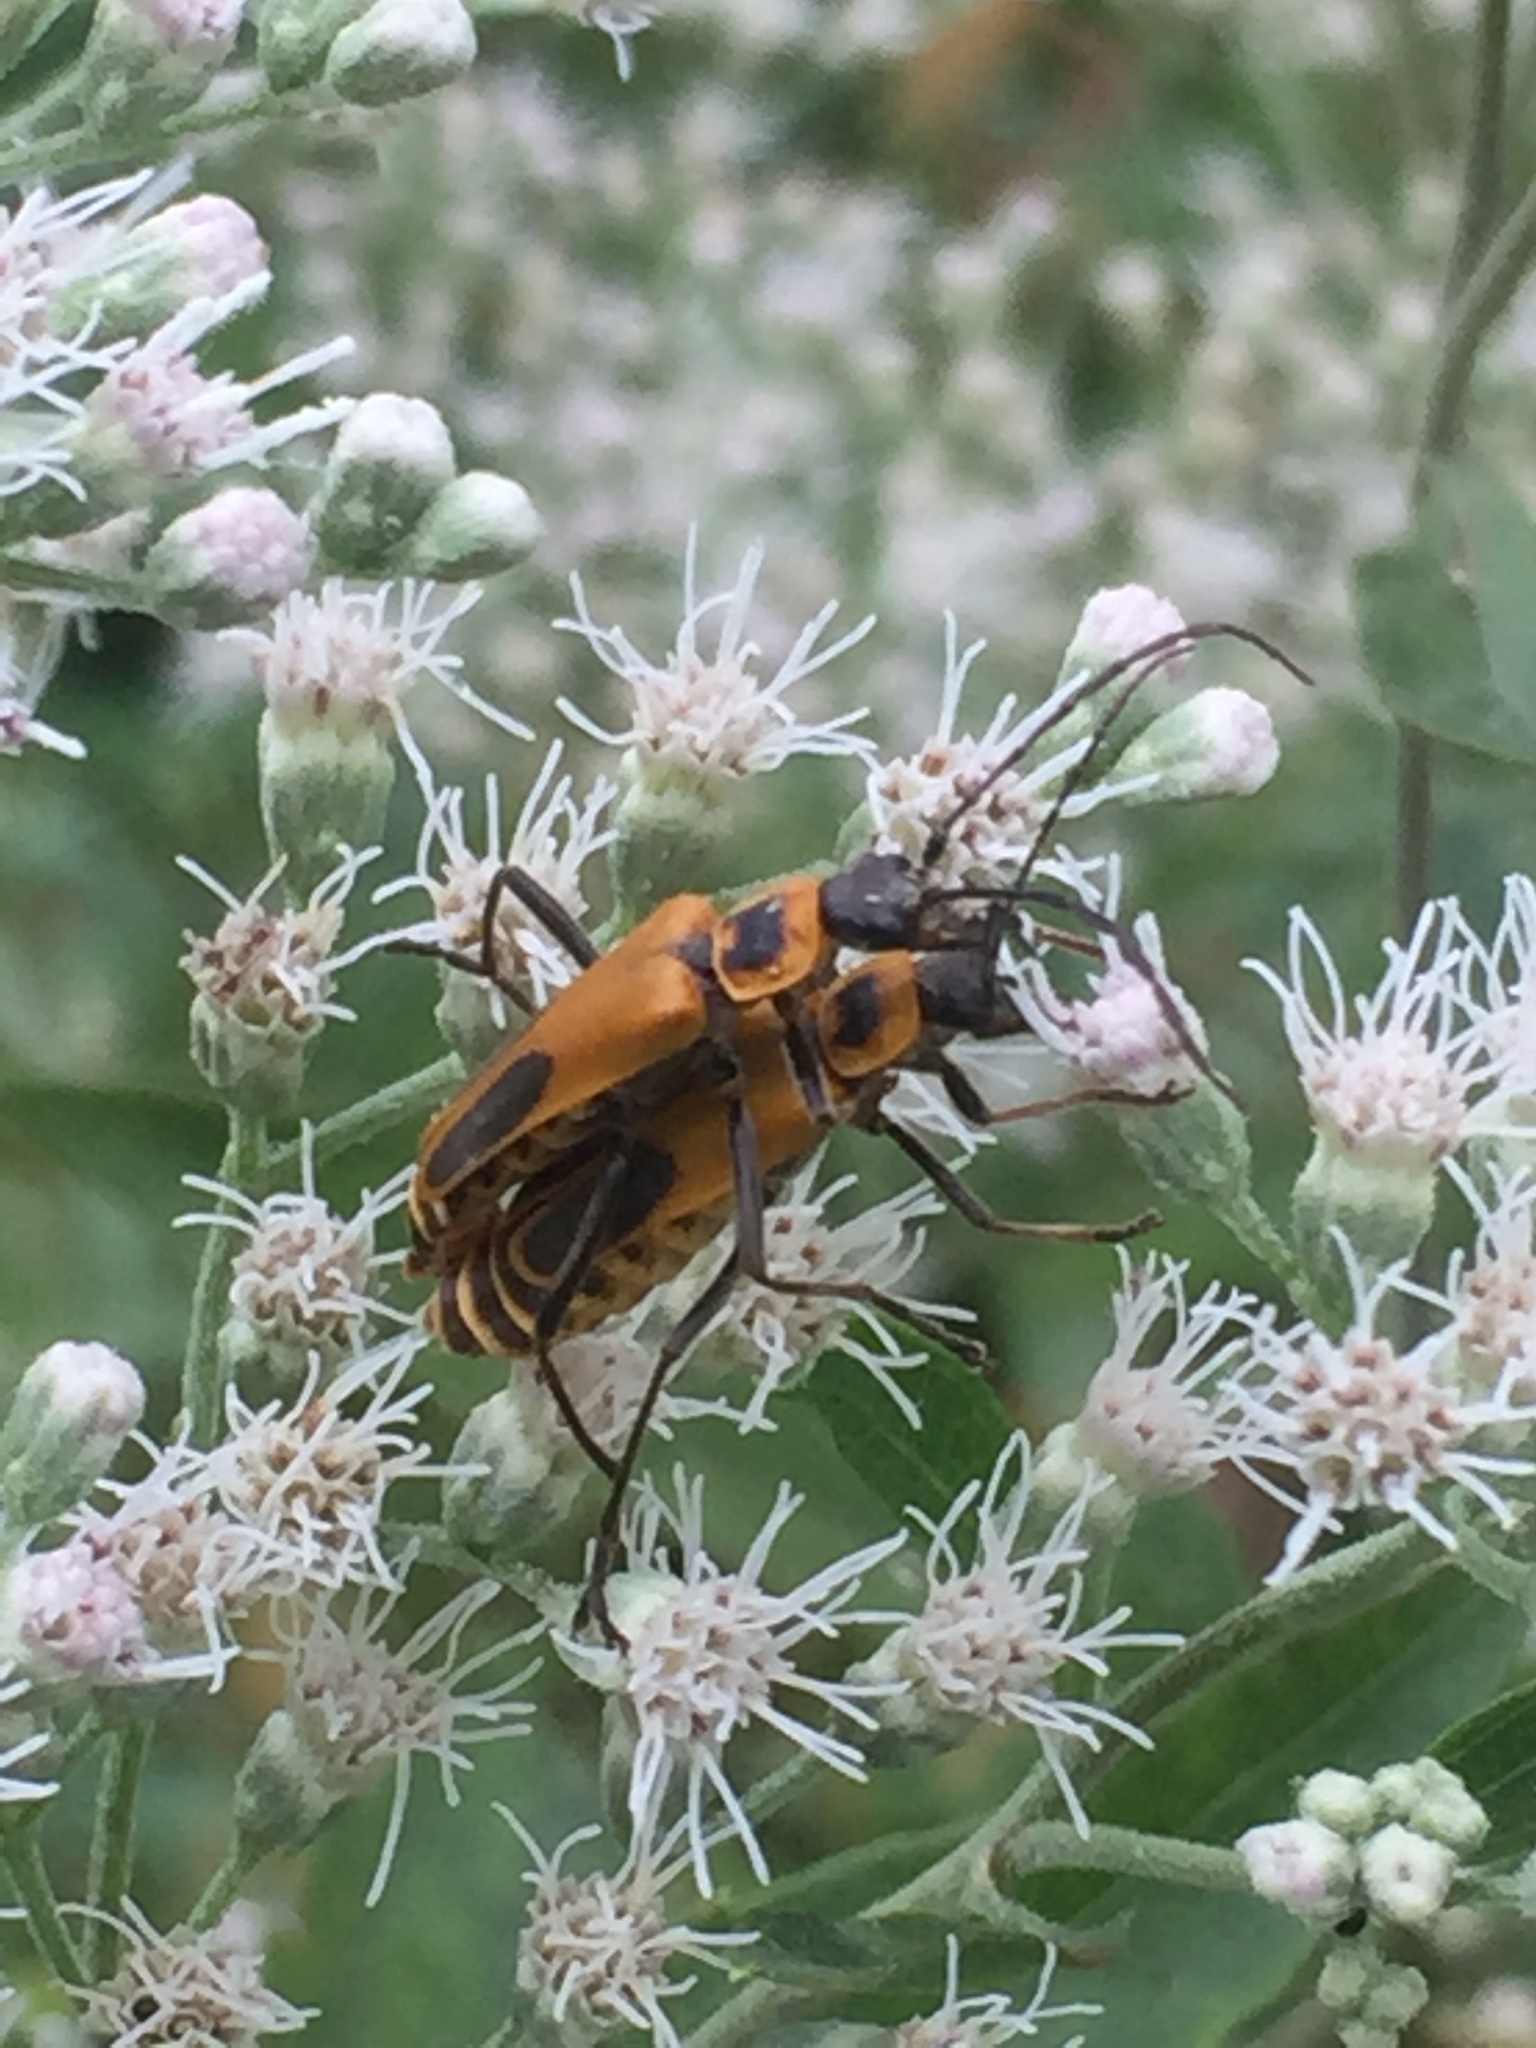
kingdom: Animalia
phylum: Arthropoda
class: Insecta
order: Coleoptera
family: Cantharidae
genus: Chauliognathus
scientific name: Chauliognathus pensylvanicus
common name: Goldenrod soldier beetle
